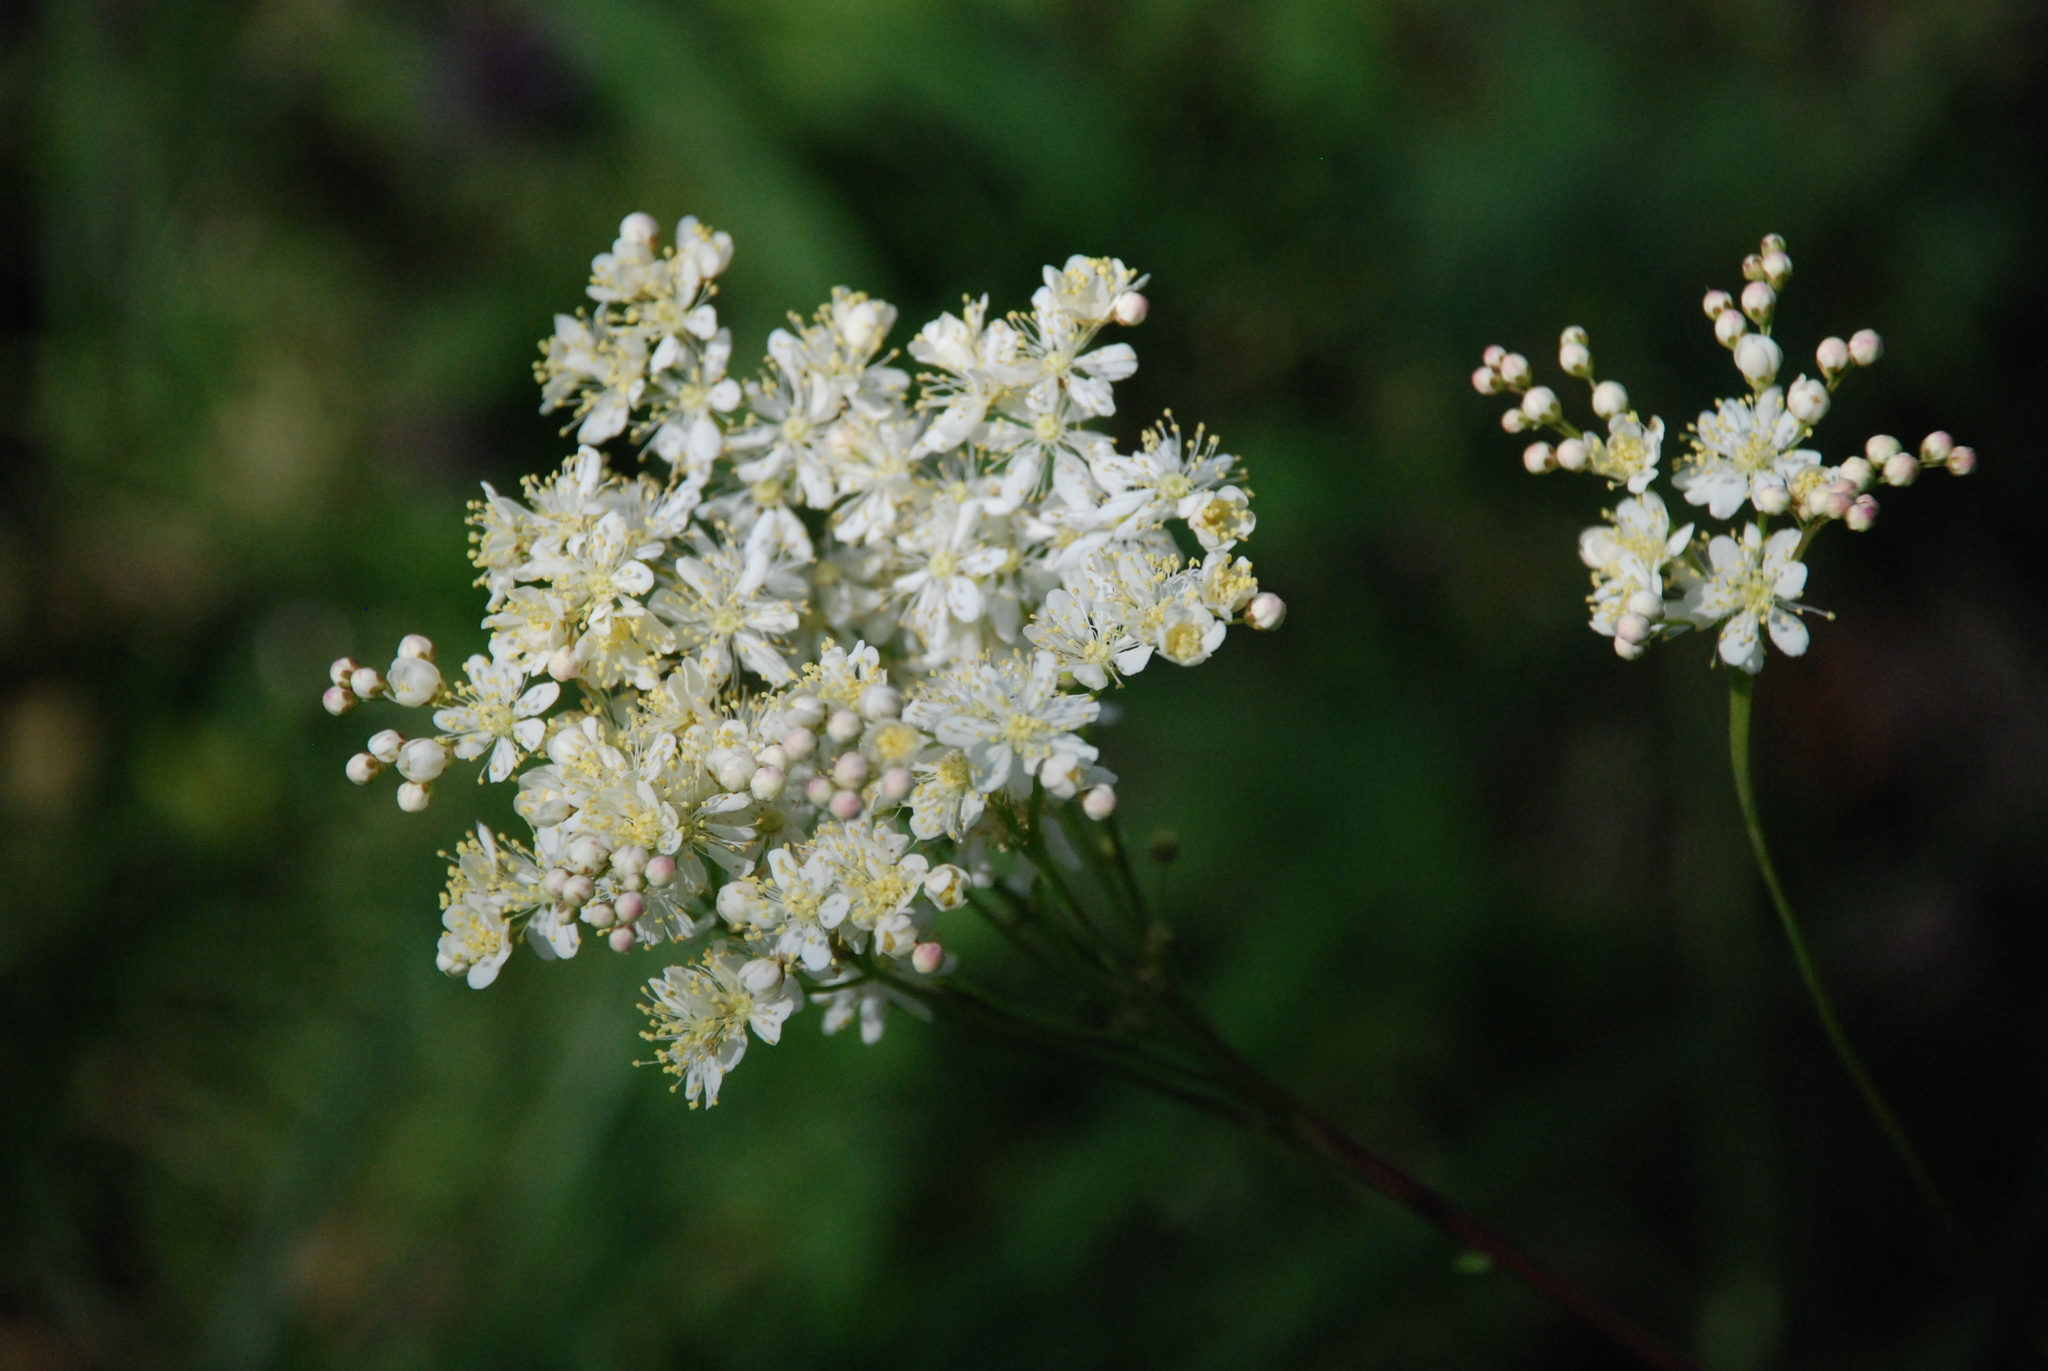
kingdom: Plantae
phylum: Tracheophyta
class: Magnoliopsida
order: Rosales
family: Rosaceae
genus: Filipendula
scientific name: Filipendula vulgaris
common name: Dropwort
